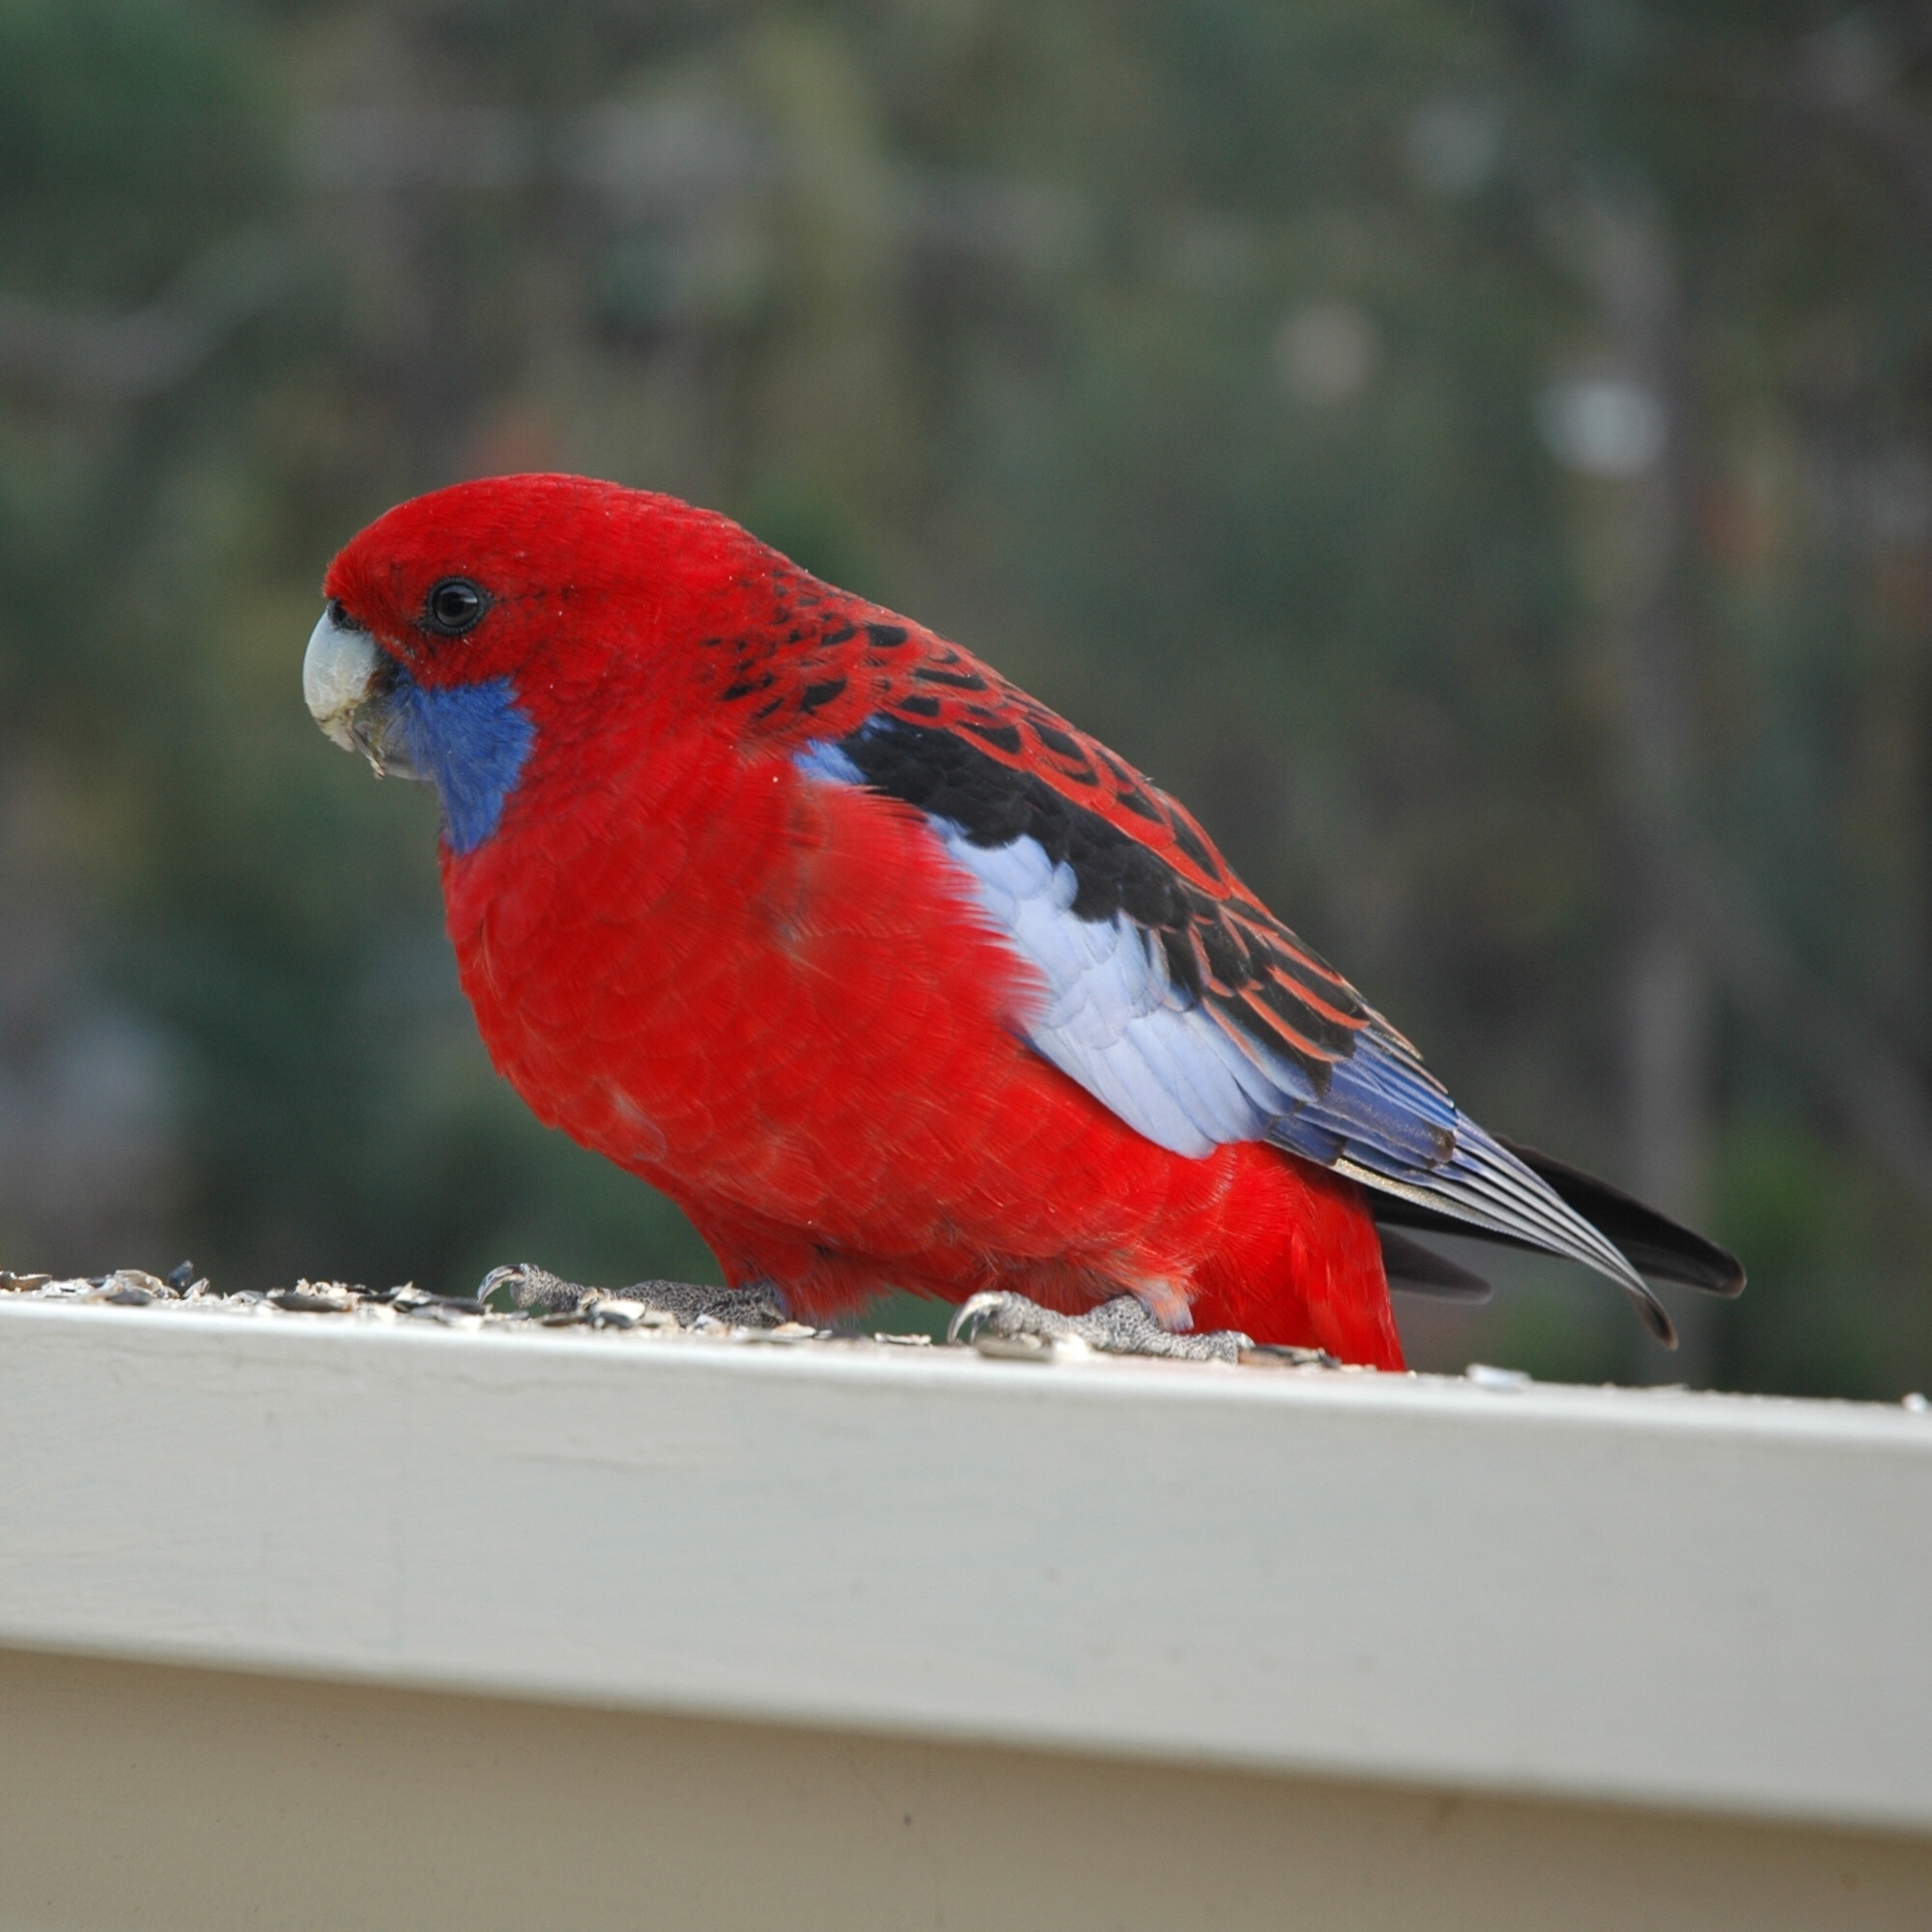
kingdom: Animalia
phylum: Chordata
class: Aves
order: Psittaciformes
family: Psittacidae
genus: Platycercus
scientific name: Platycercus elegans
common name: Crimson rosella
